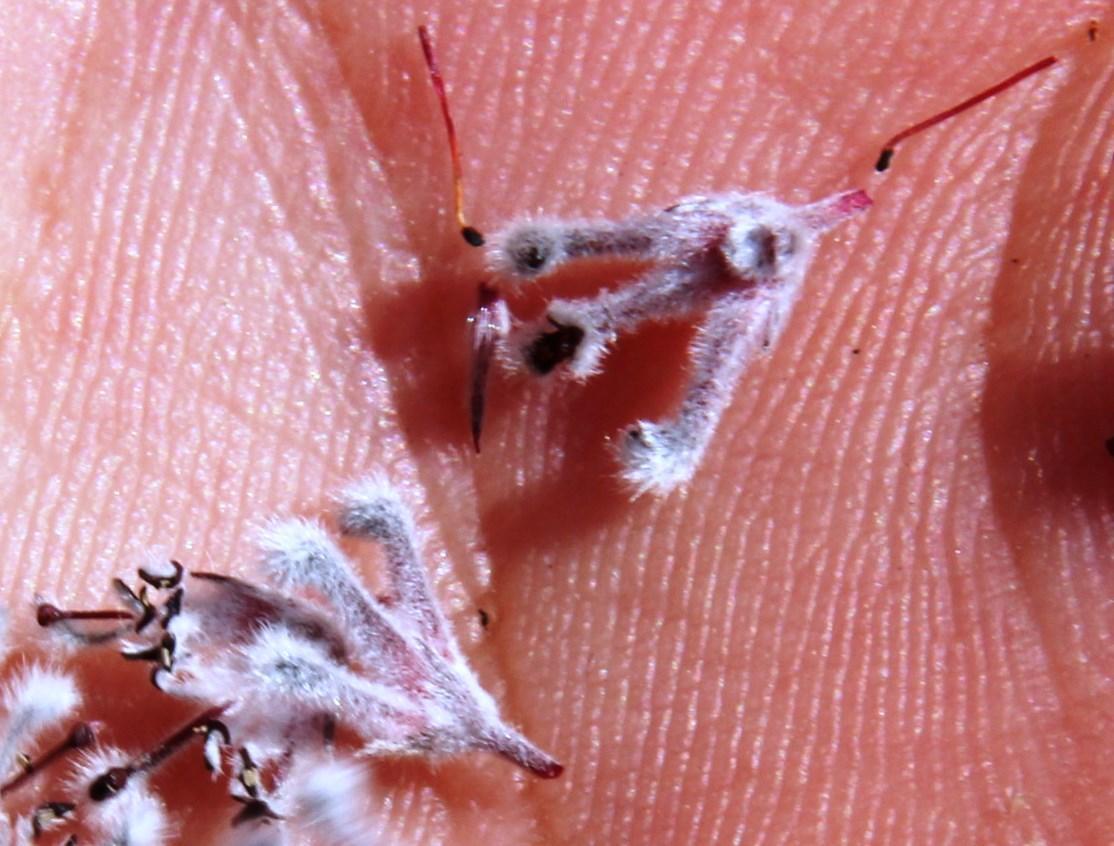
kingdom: Plantae
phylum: Tracheophyta
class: Magnoliopsida
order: Proteales
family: Proteaceae
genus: Spatalla
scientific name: Spatalla propinqua
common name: Lax spoon
